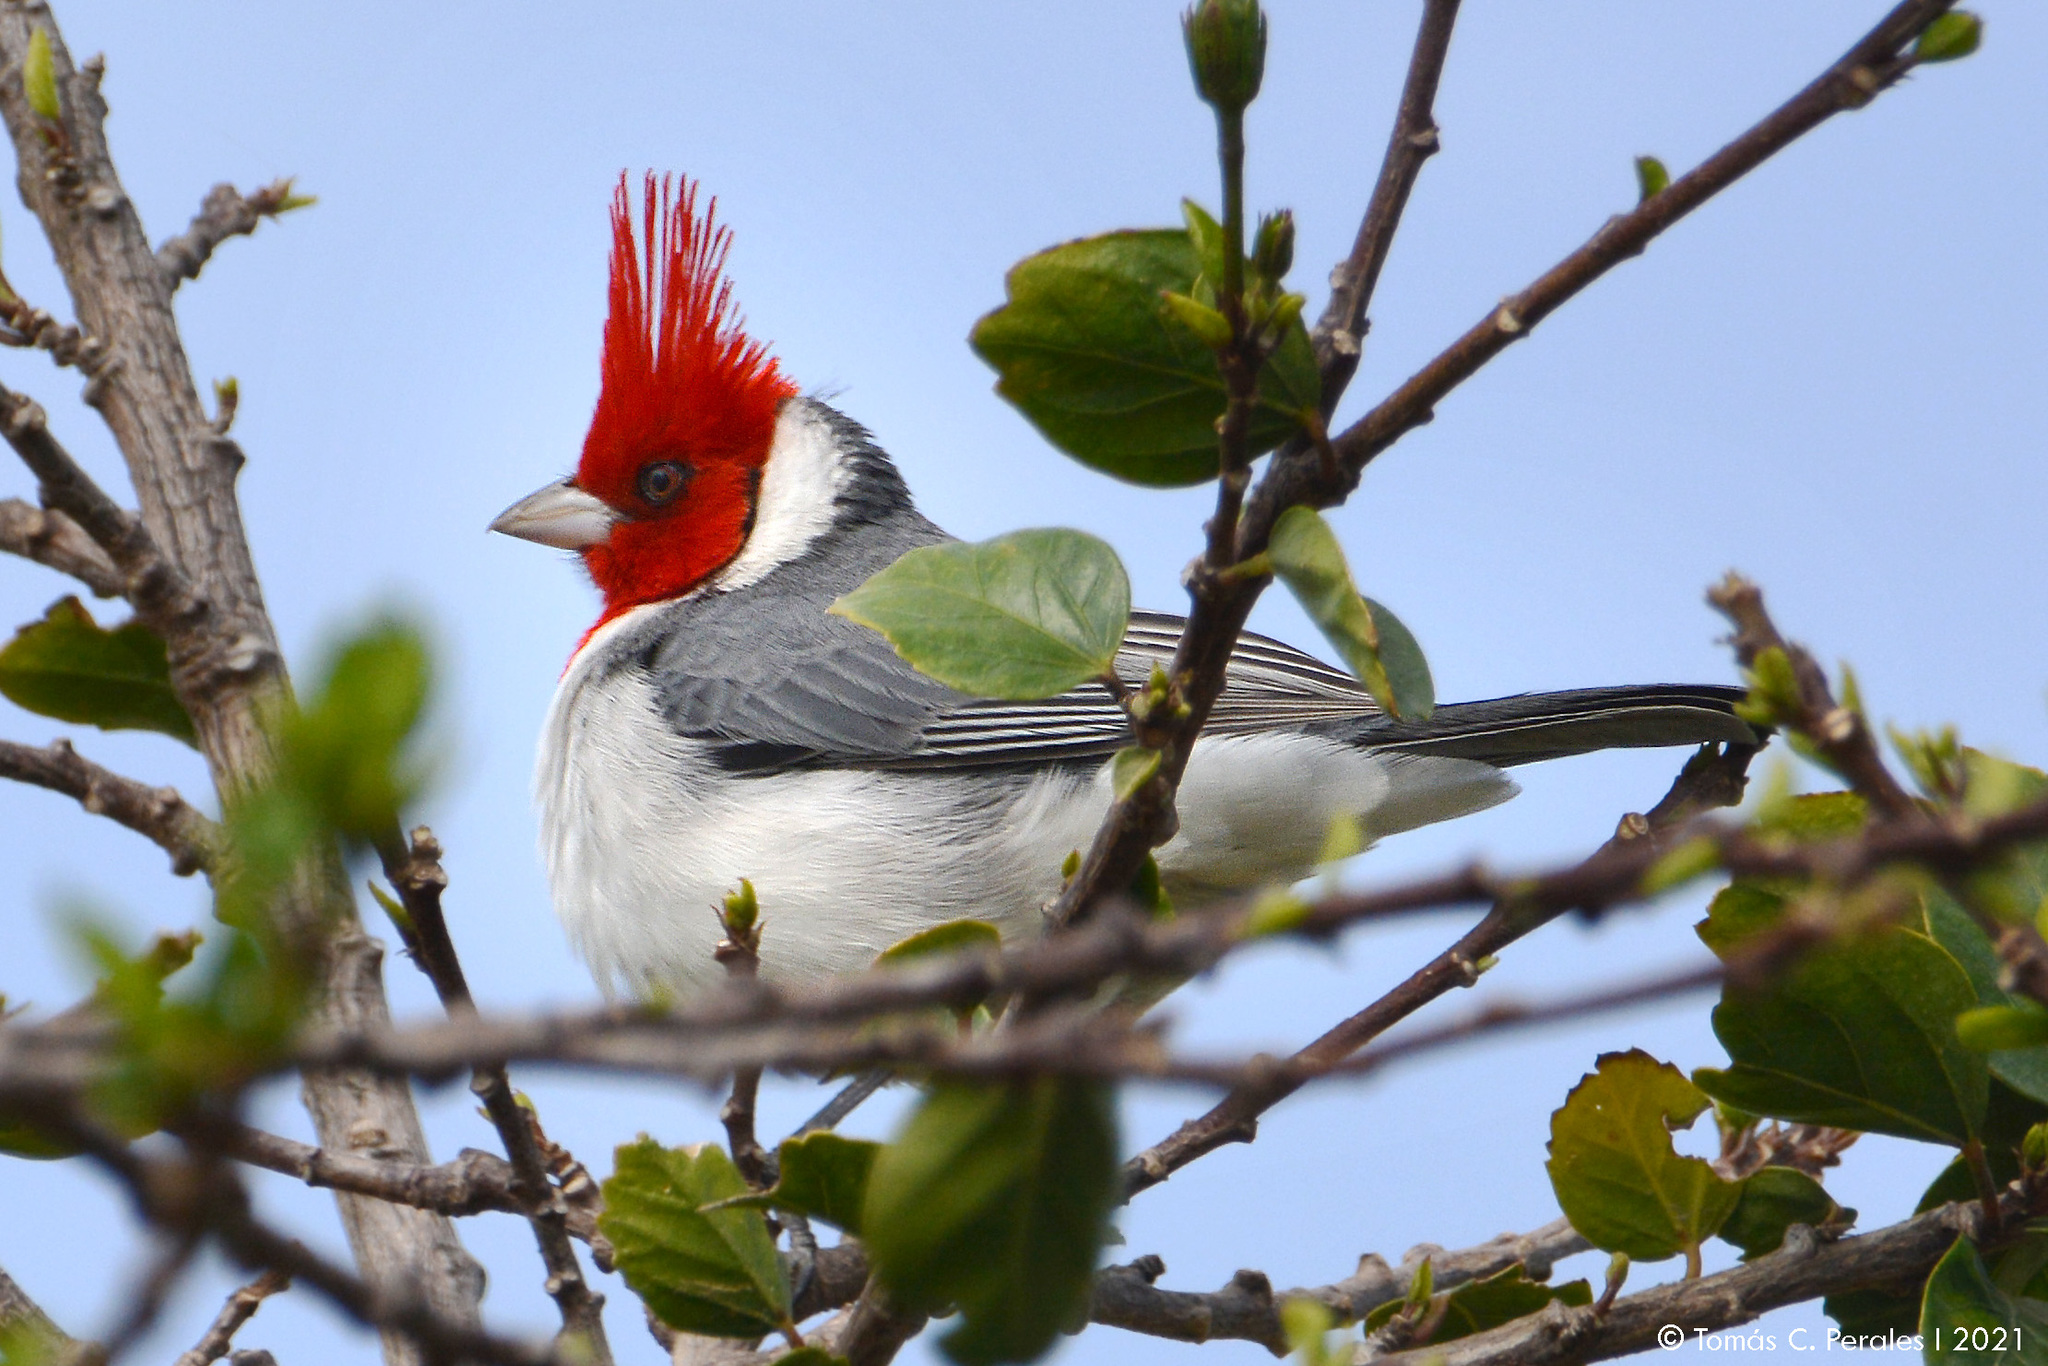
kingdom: Animalia
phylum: Chordata
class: Aves
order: Passeriformes
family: Thraupidae
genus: Paroaria
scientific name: Paroaria coronata
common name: Red-crested cardinal
